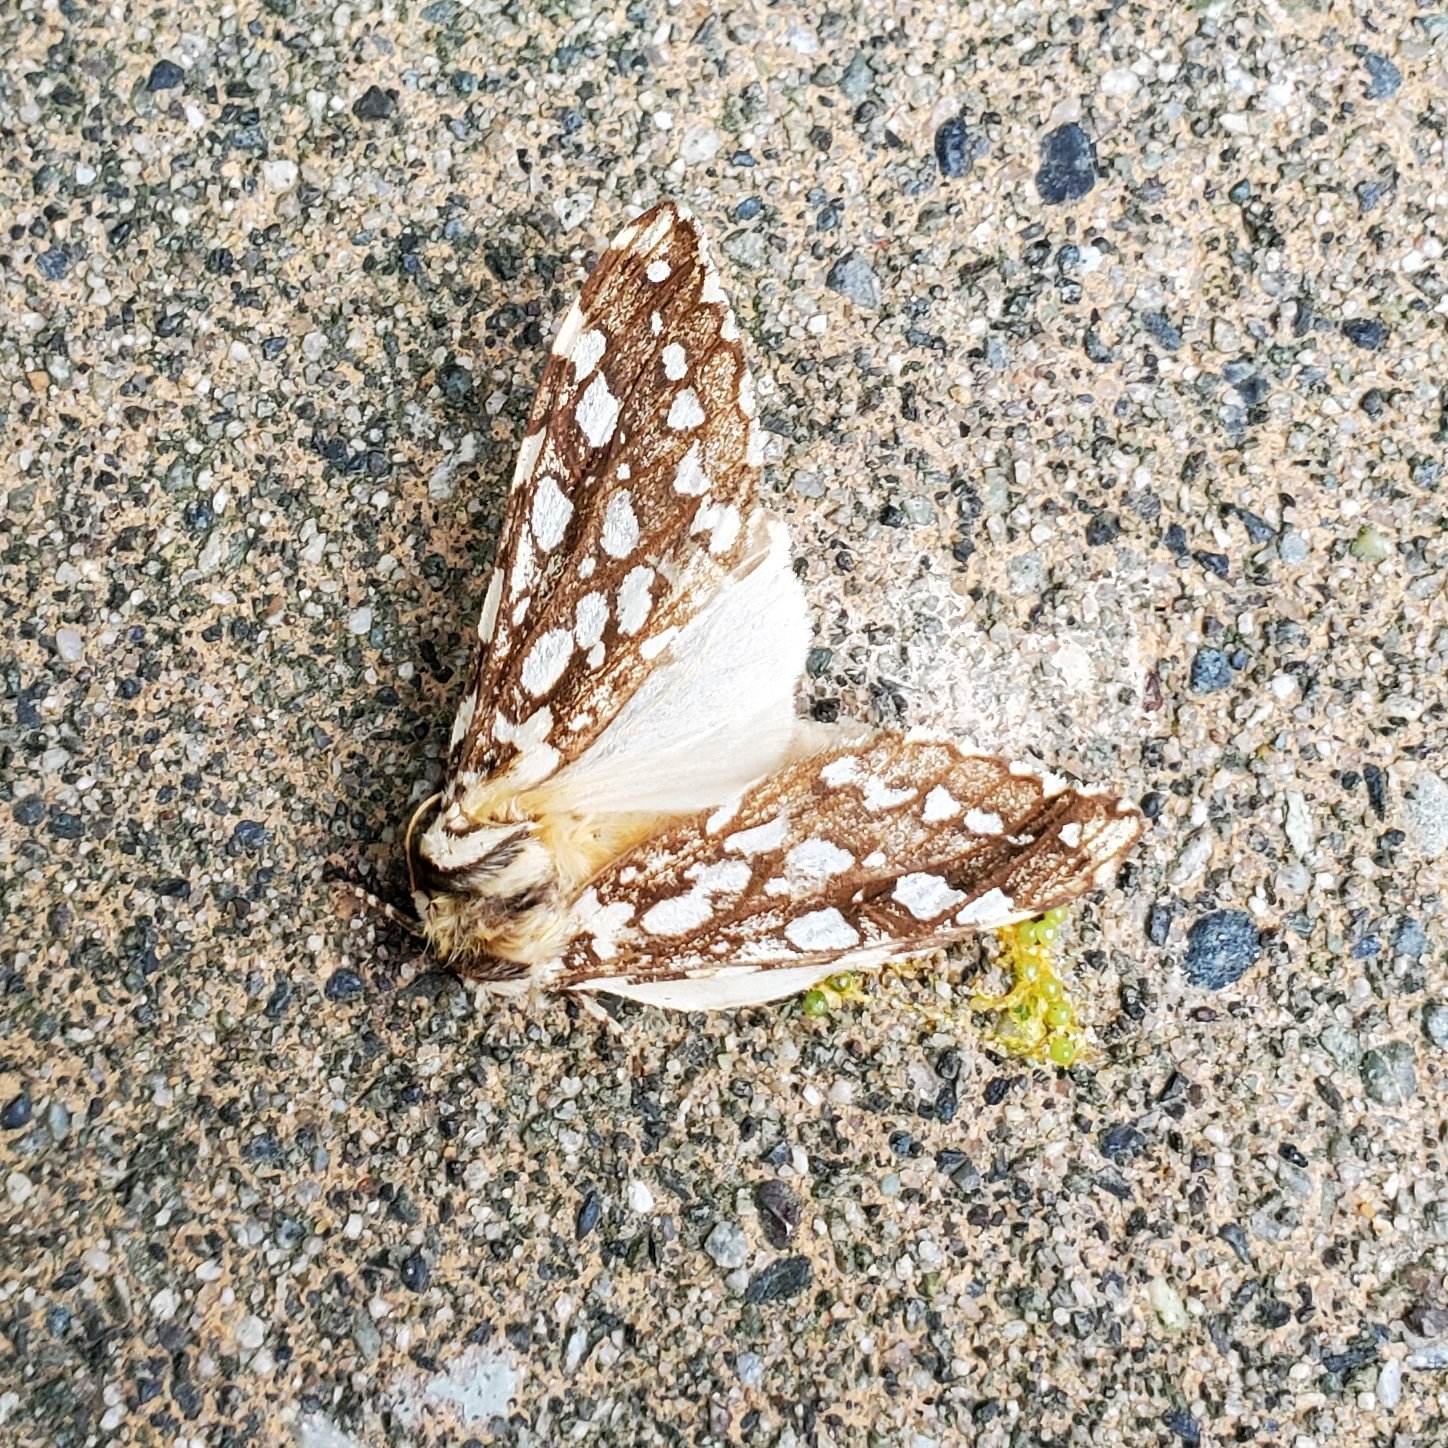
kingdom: Animalia
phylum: Arthropoda
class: Insecta
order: Lepidoptera
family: Erebidae
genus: Lophocampa
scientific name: Lophocampa argentata
